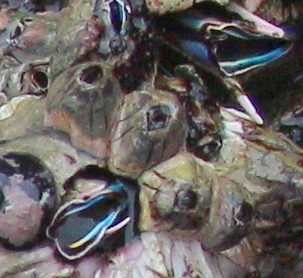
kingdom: Animalia
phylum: Arthropoda
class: Maxillopoda
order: Sessilia
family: Balanidae
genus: Balanus
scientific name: Balanus laevis
